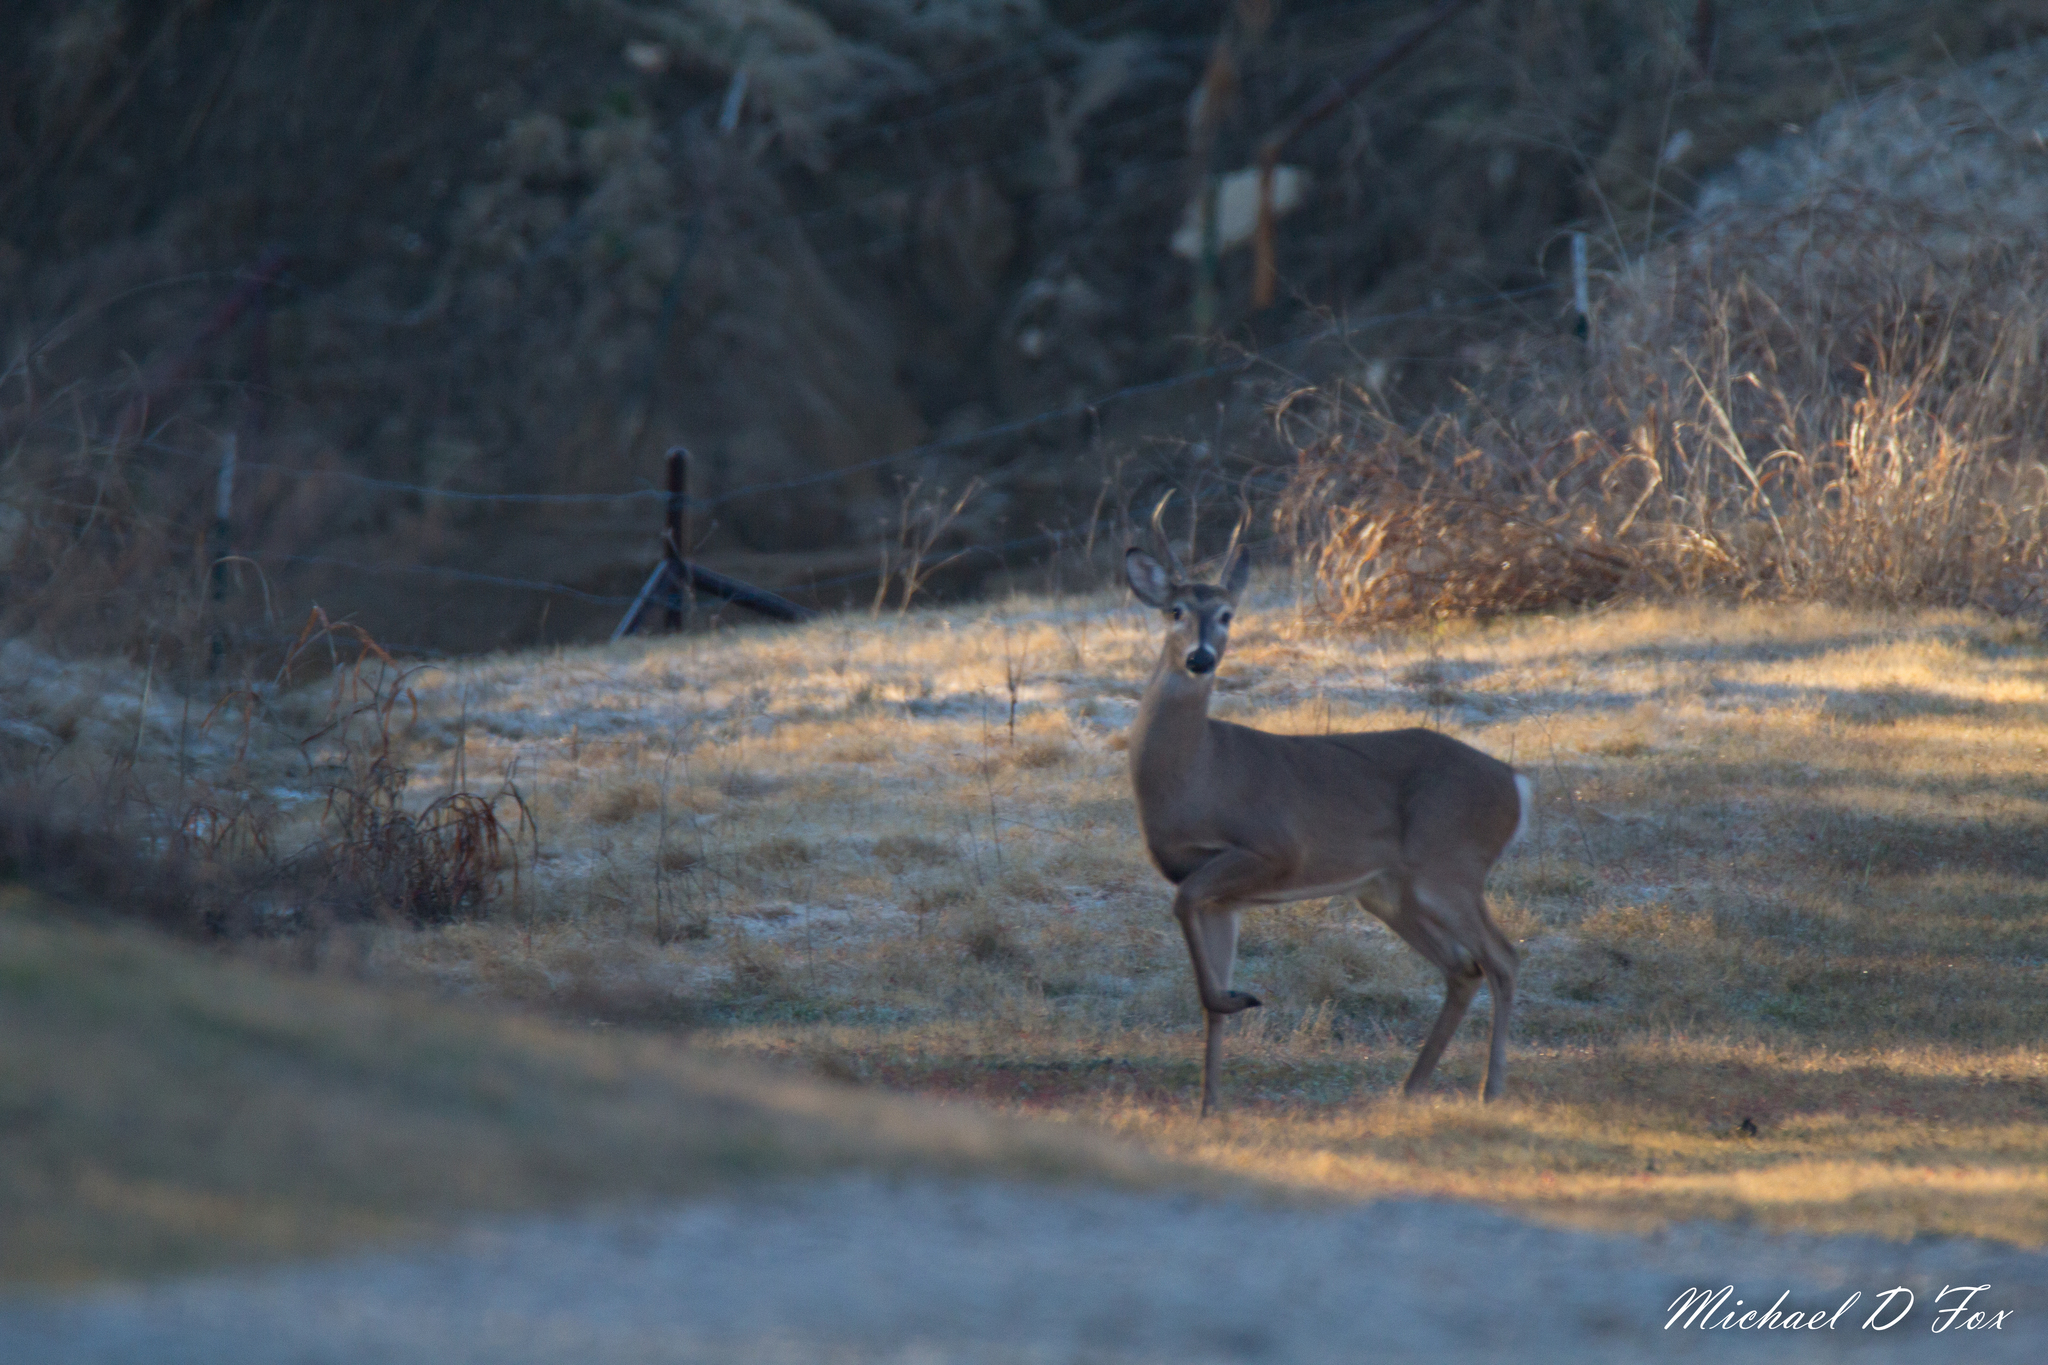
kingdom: Animalia
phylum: Chordata
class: Mammalia
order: Artiodactyla
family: Cervidae
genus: Odocoileus
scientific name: Odocoileus virginianus
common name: White-tailed deer
